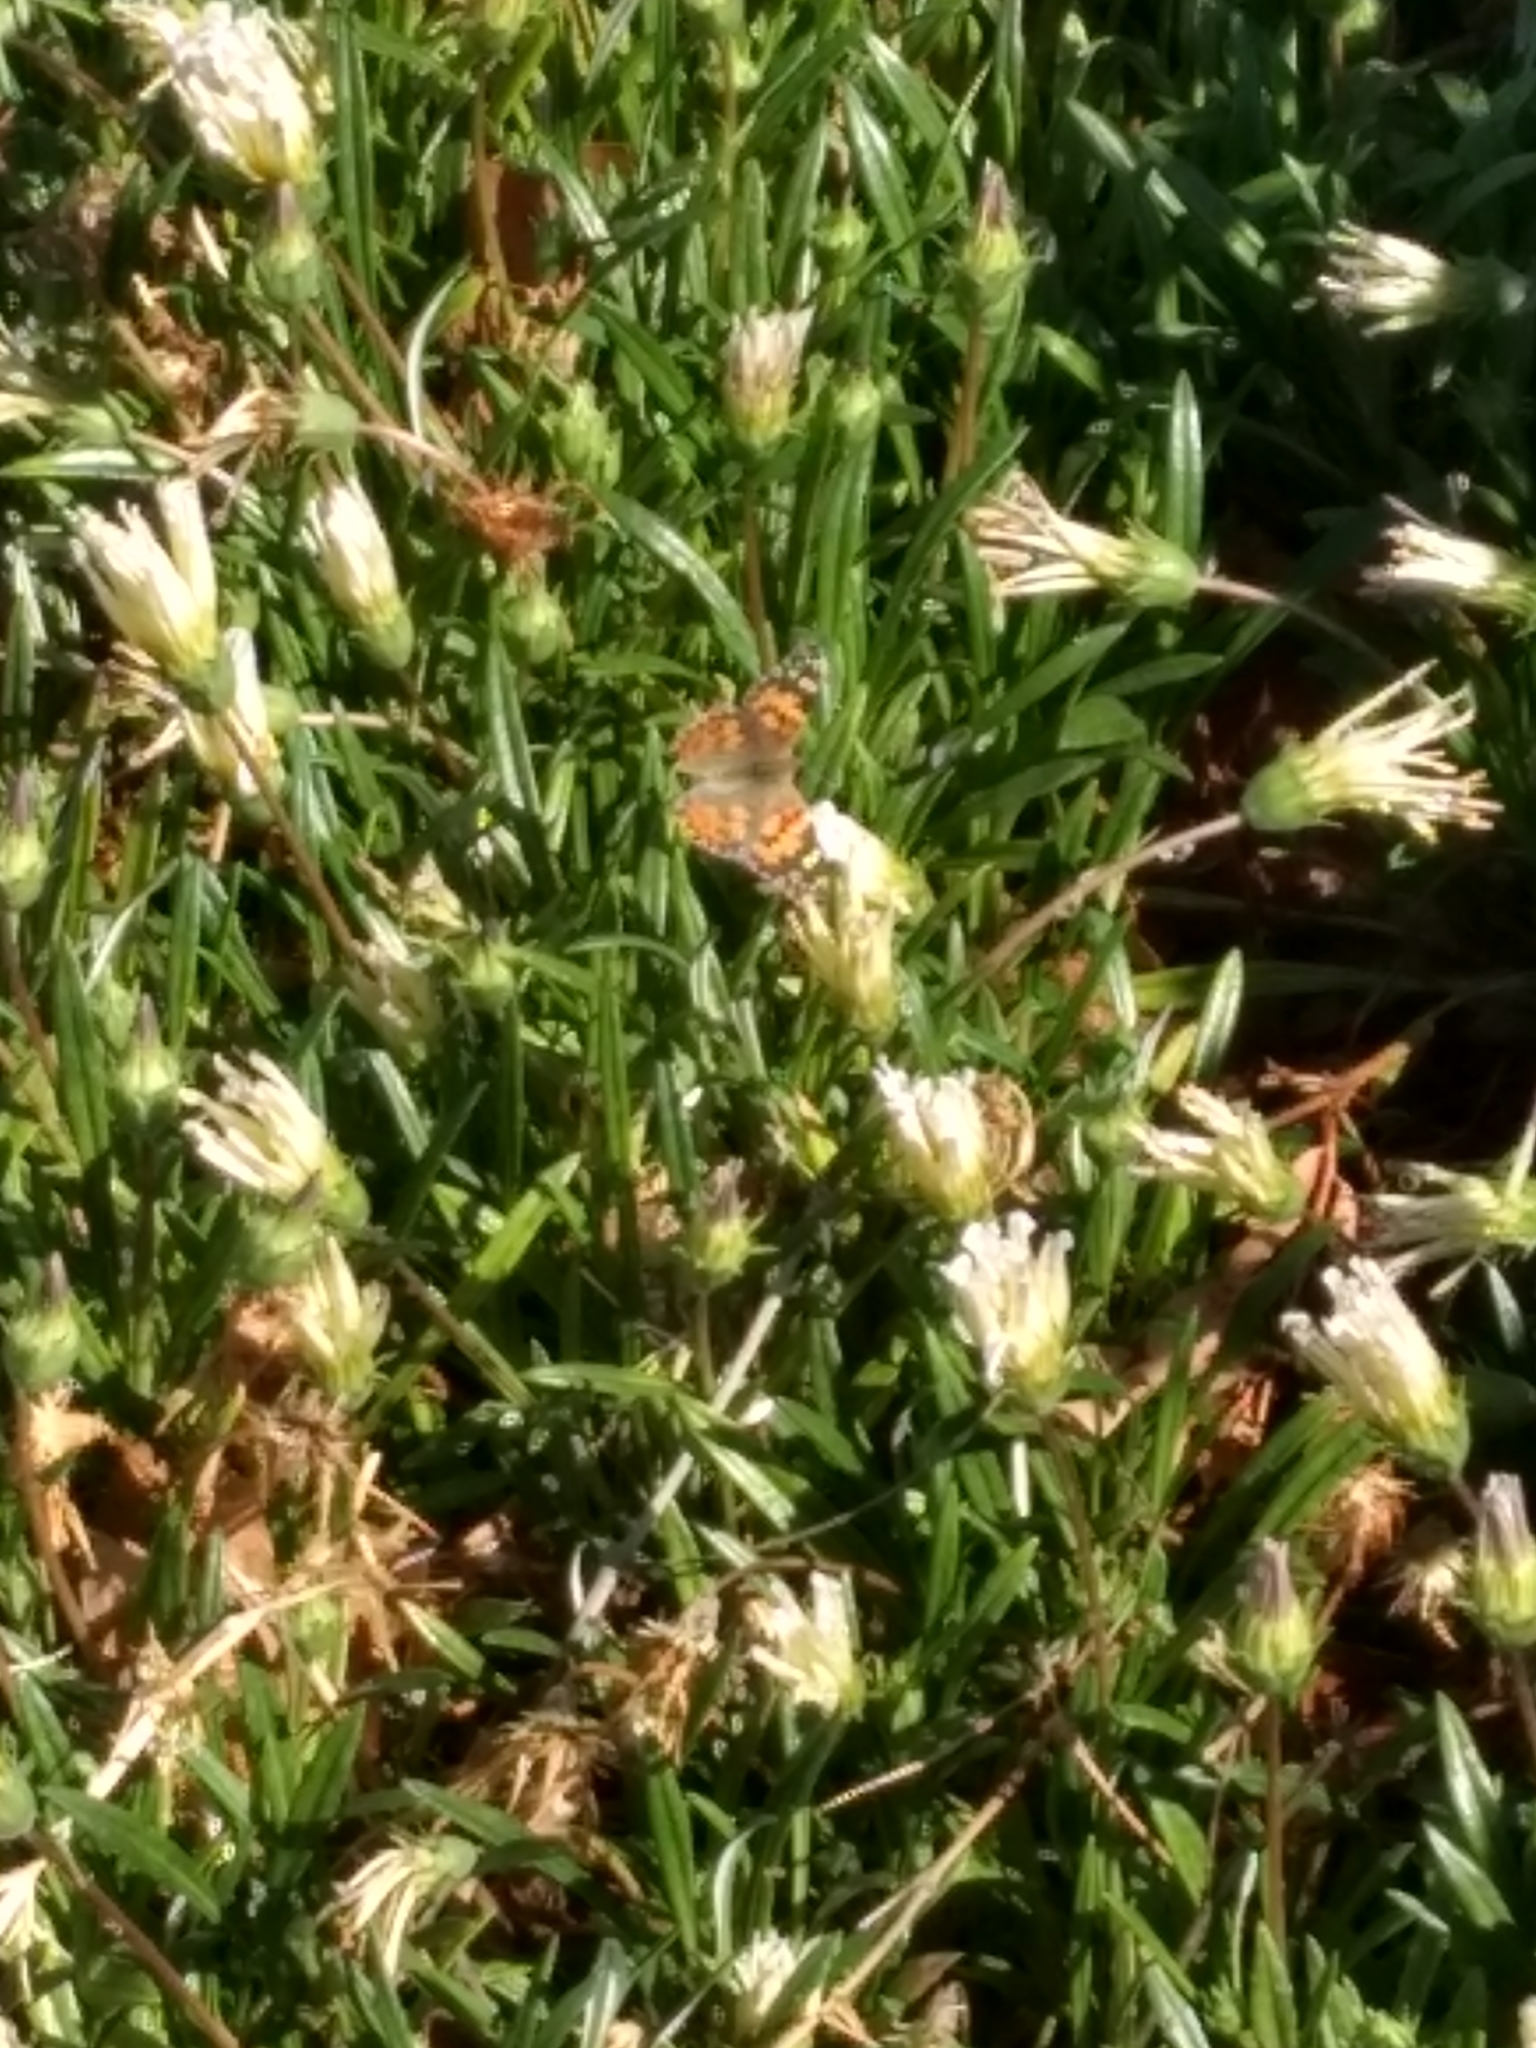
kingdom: Animalia
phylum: Arthropoda
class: Insecta
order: Lepidoptera
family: Nymphalidae
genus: Vanessa
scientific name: Vanessa cardui
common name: Painted lady
